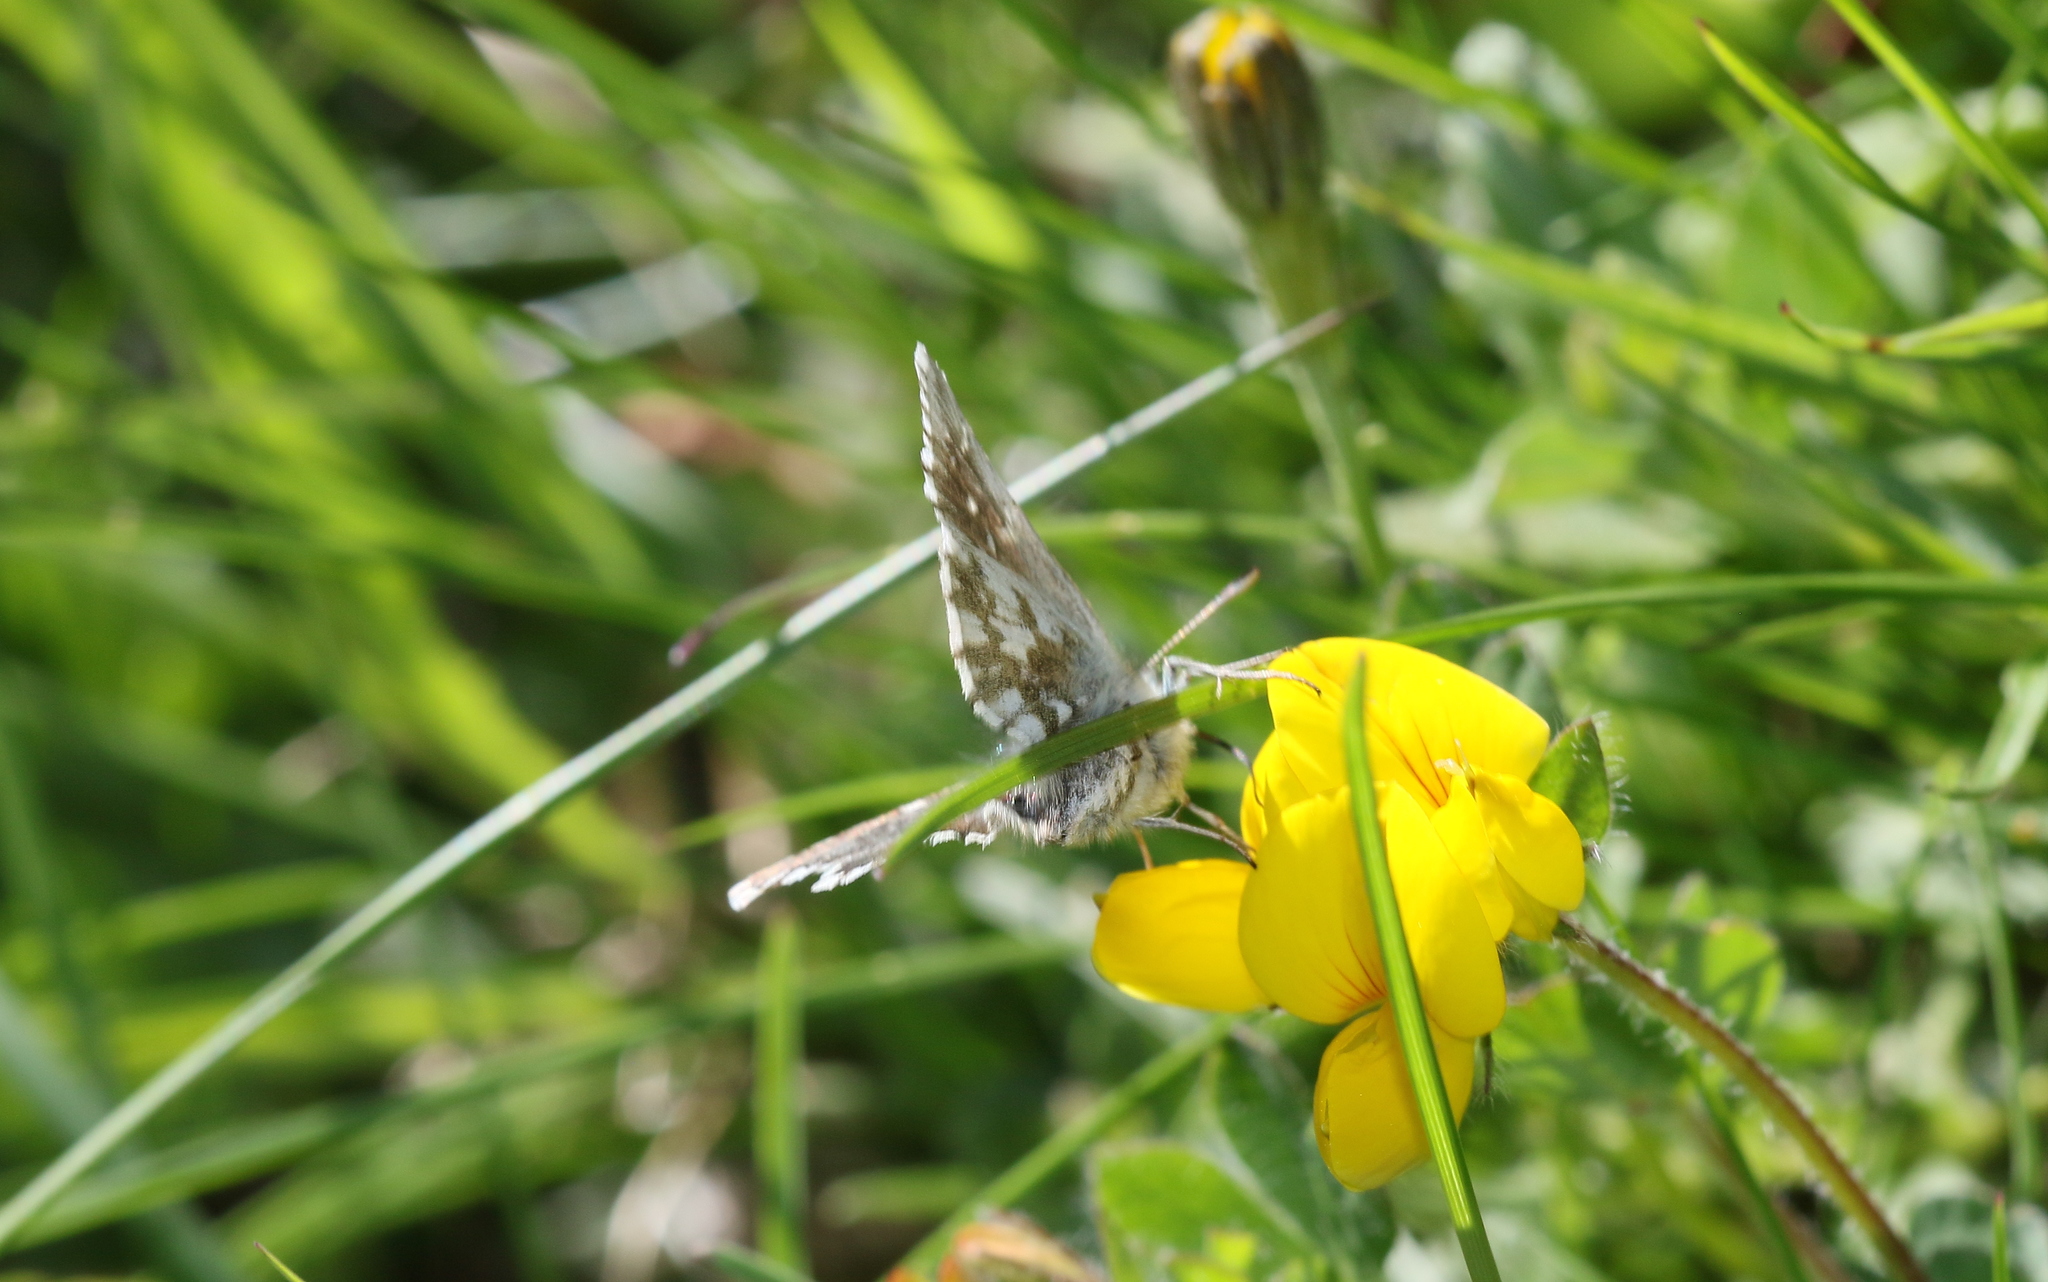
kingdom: Animalia
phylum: Arthropoda
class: Insecta
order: Lepidoptera
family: Hesperiidae
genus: Pyrgus
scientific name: Pyrgus cacaliae
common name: Dusky grizzled skipper
